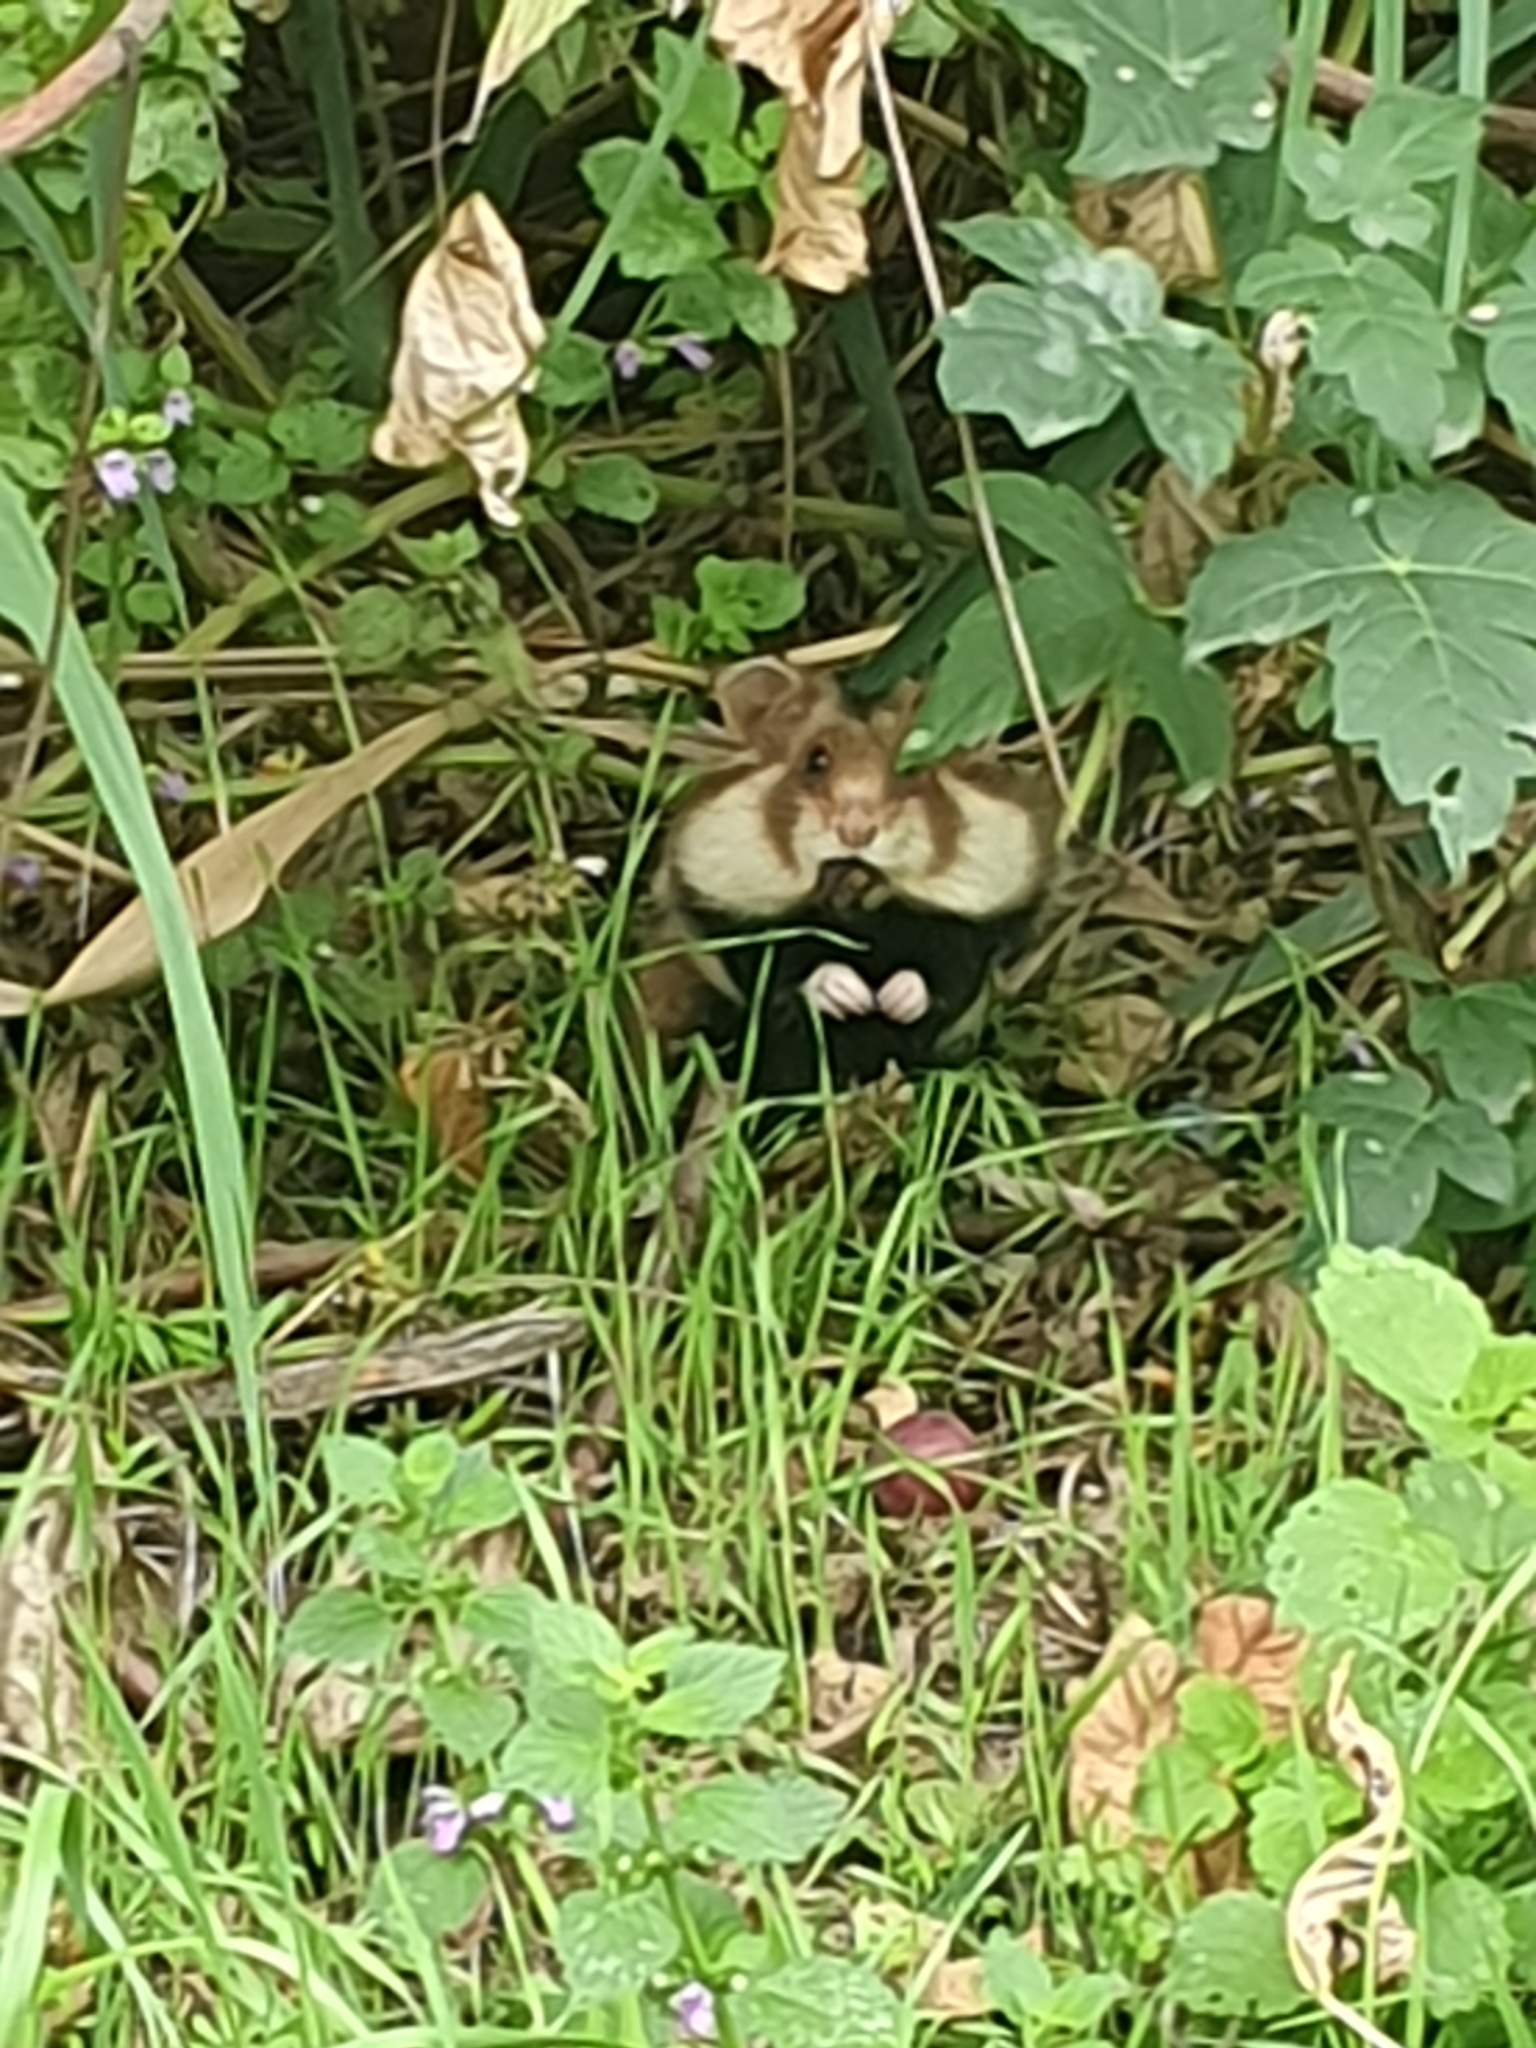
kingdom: Animalia
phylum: Chordata
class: Mammalia
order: Rodentia
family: Cricetidae
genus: Cricetus
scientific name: Cricetus cricetus
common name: Common hamster
